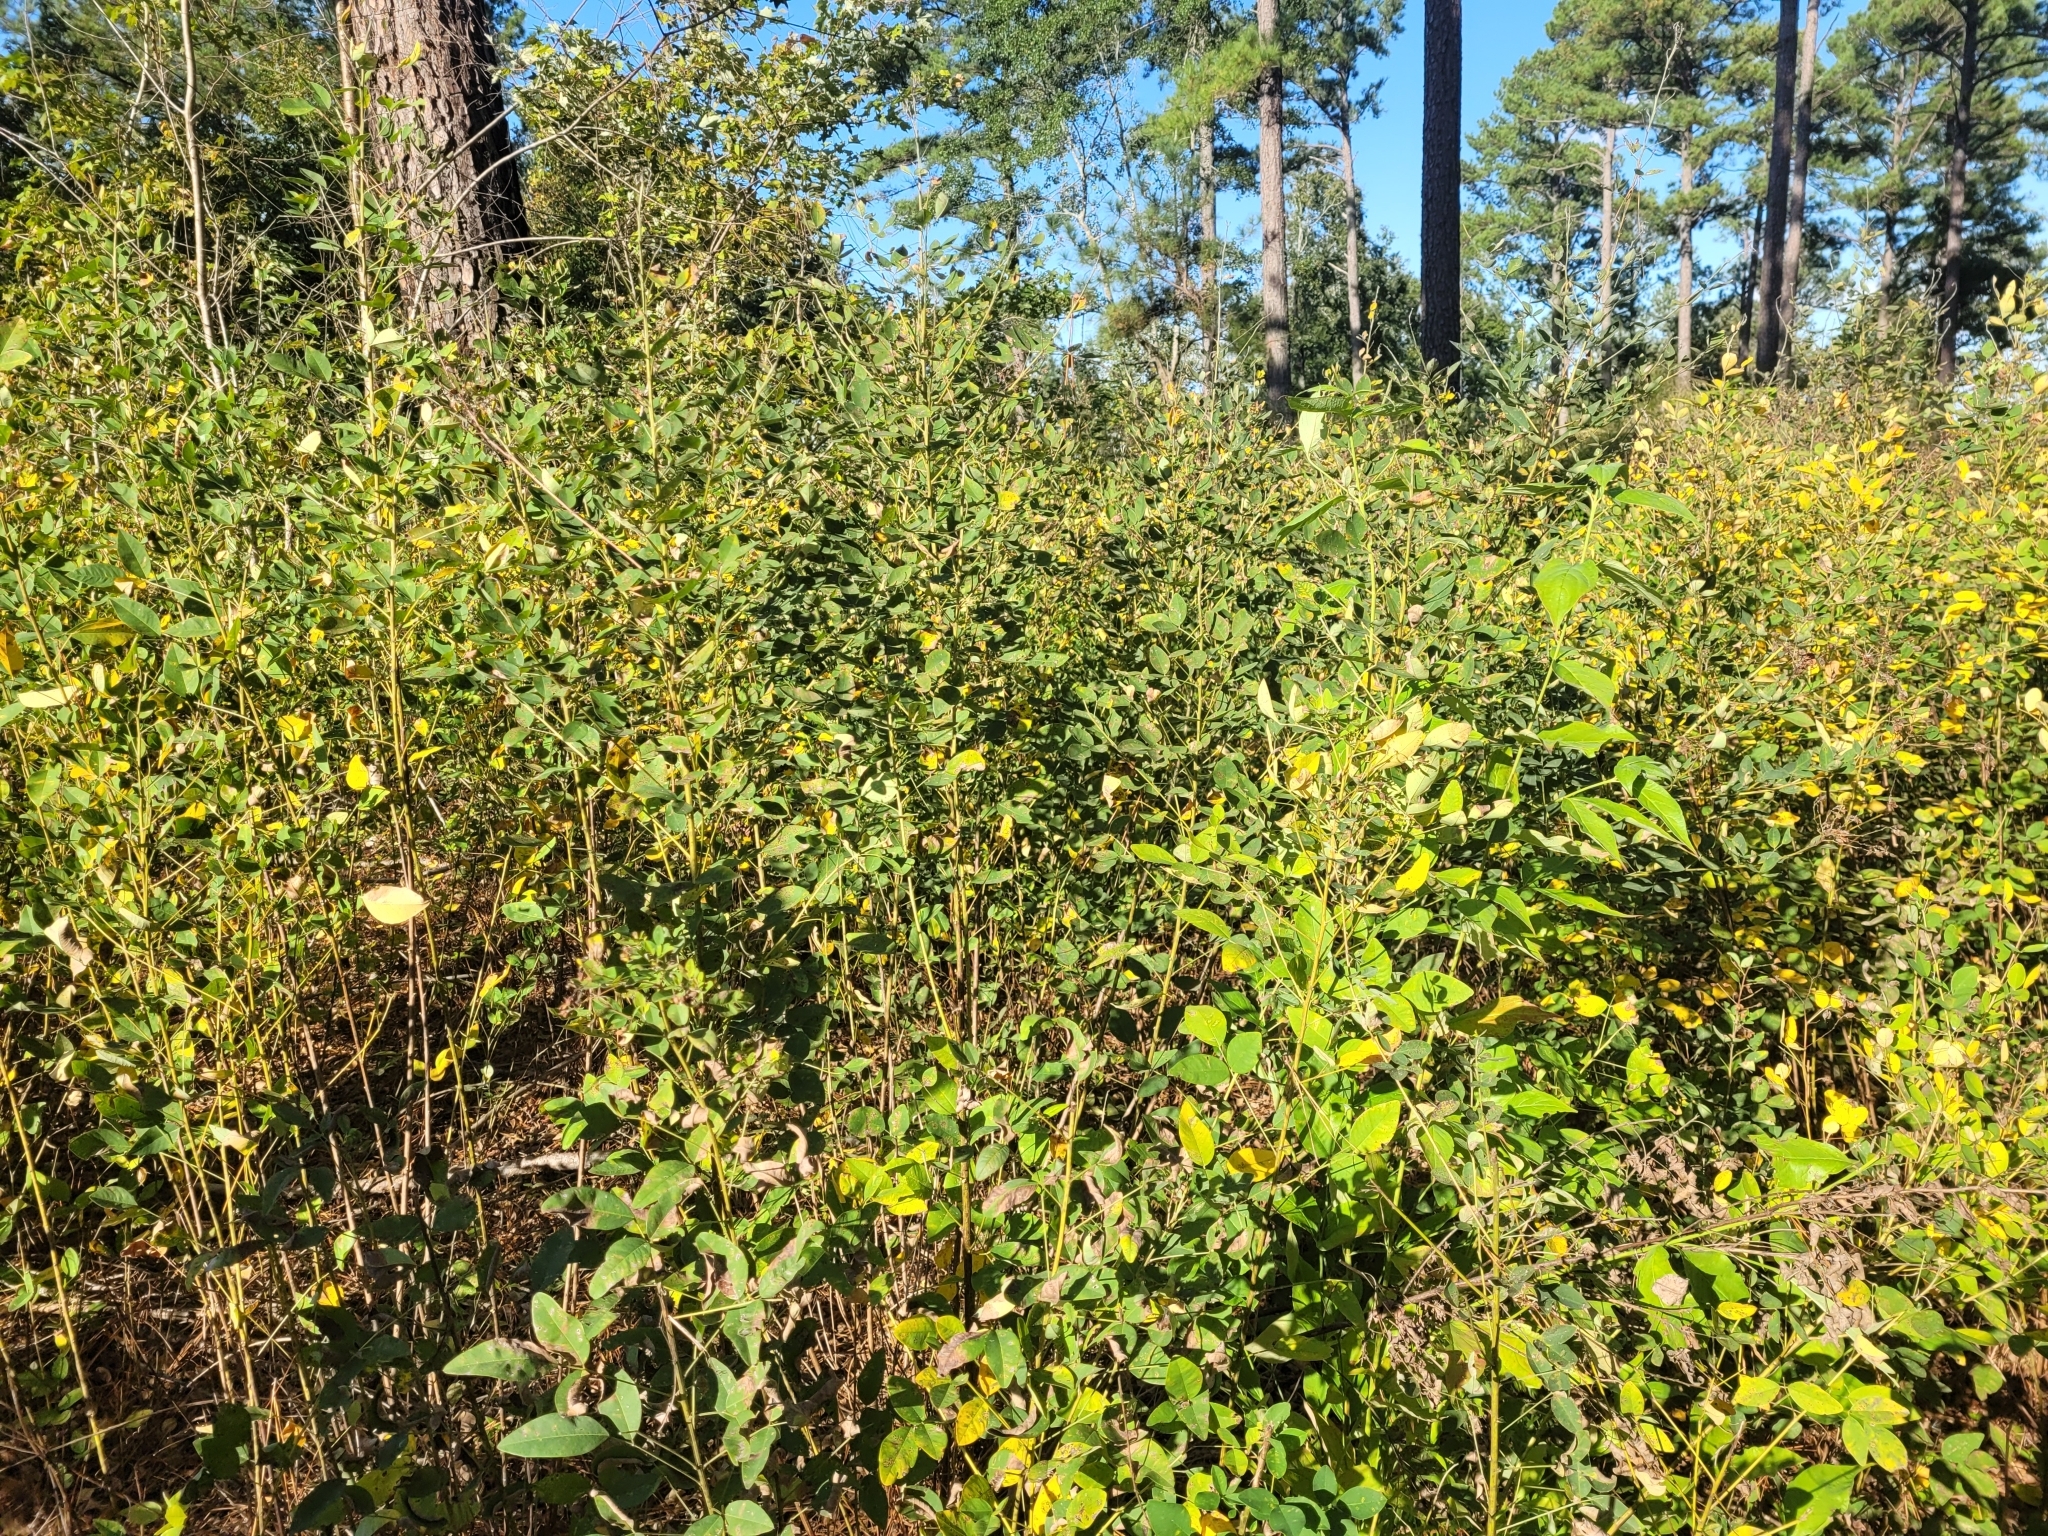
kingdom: Plantae
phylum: Tracheophyta
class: Magnoliopsida
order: Fabales
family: Fabaceae
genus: Lespedeza
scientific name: Lespedeza bicolor
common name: Shrub lespedeza
